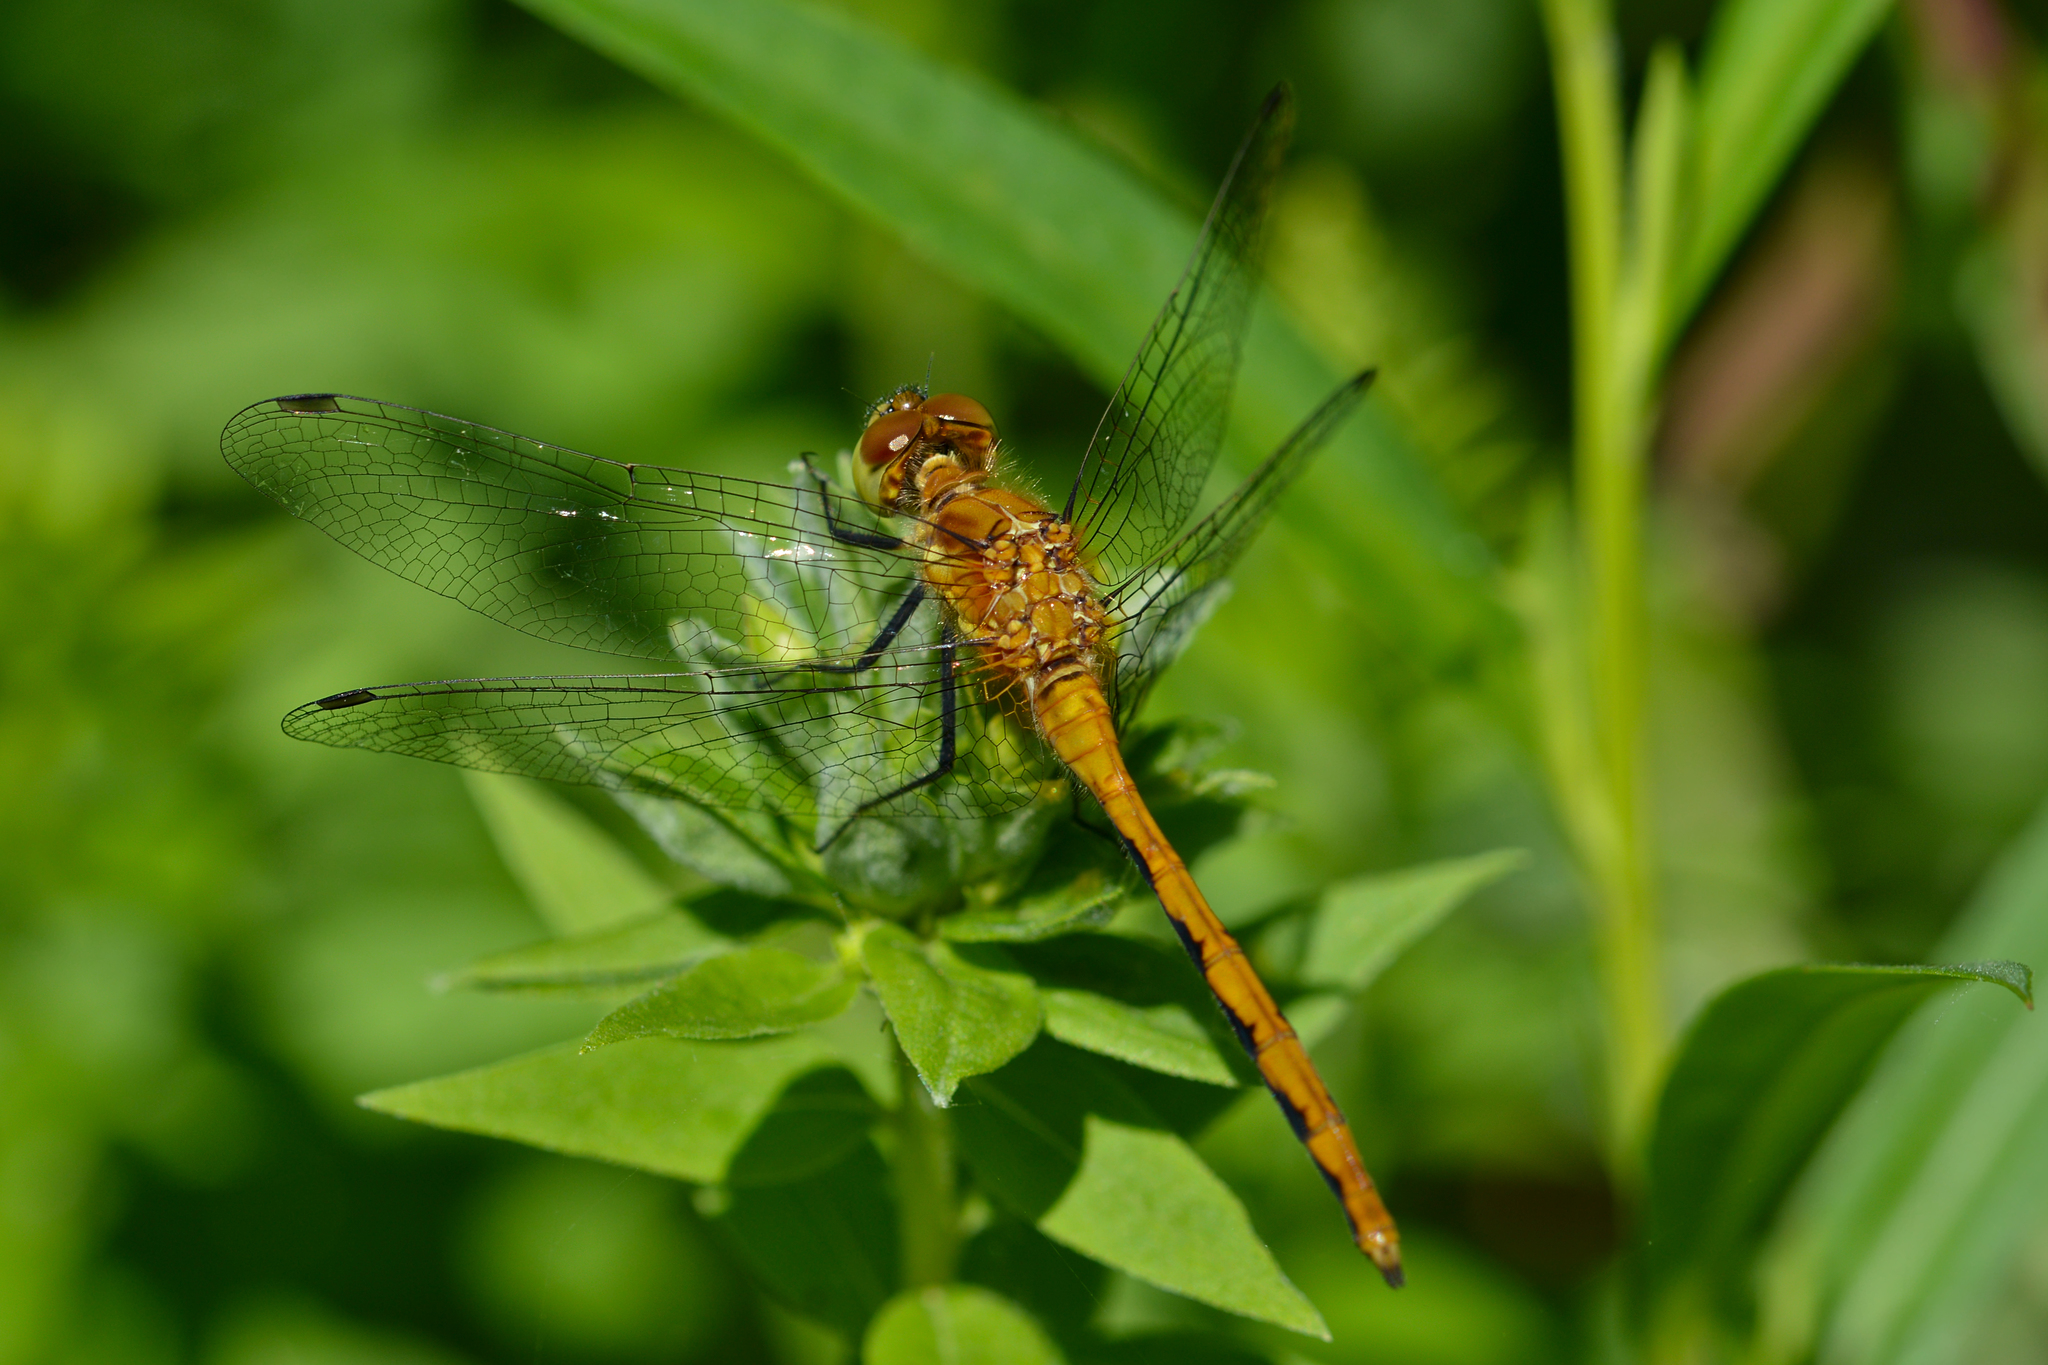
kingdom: Animalia
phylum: Arthropoda
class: Insecta
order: Odonata
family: Libellulidae
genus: Sympetrum
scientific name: Sympetrum
